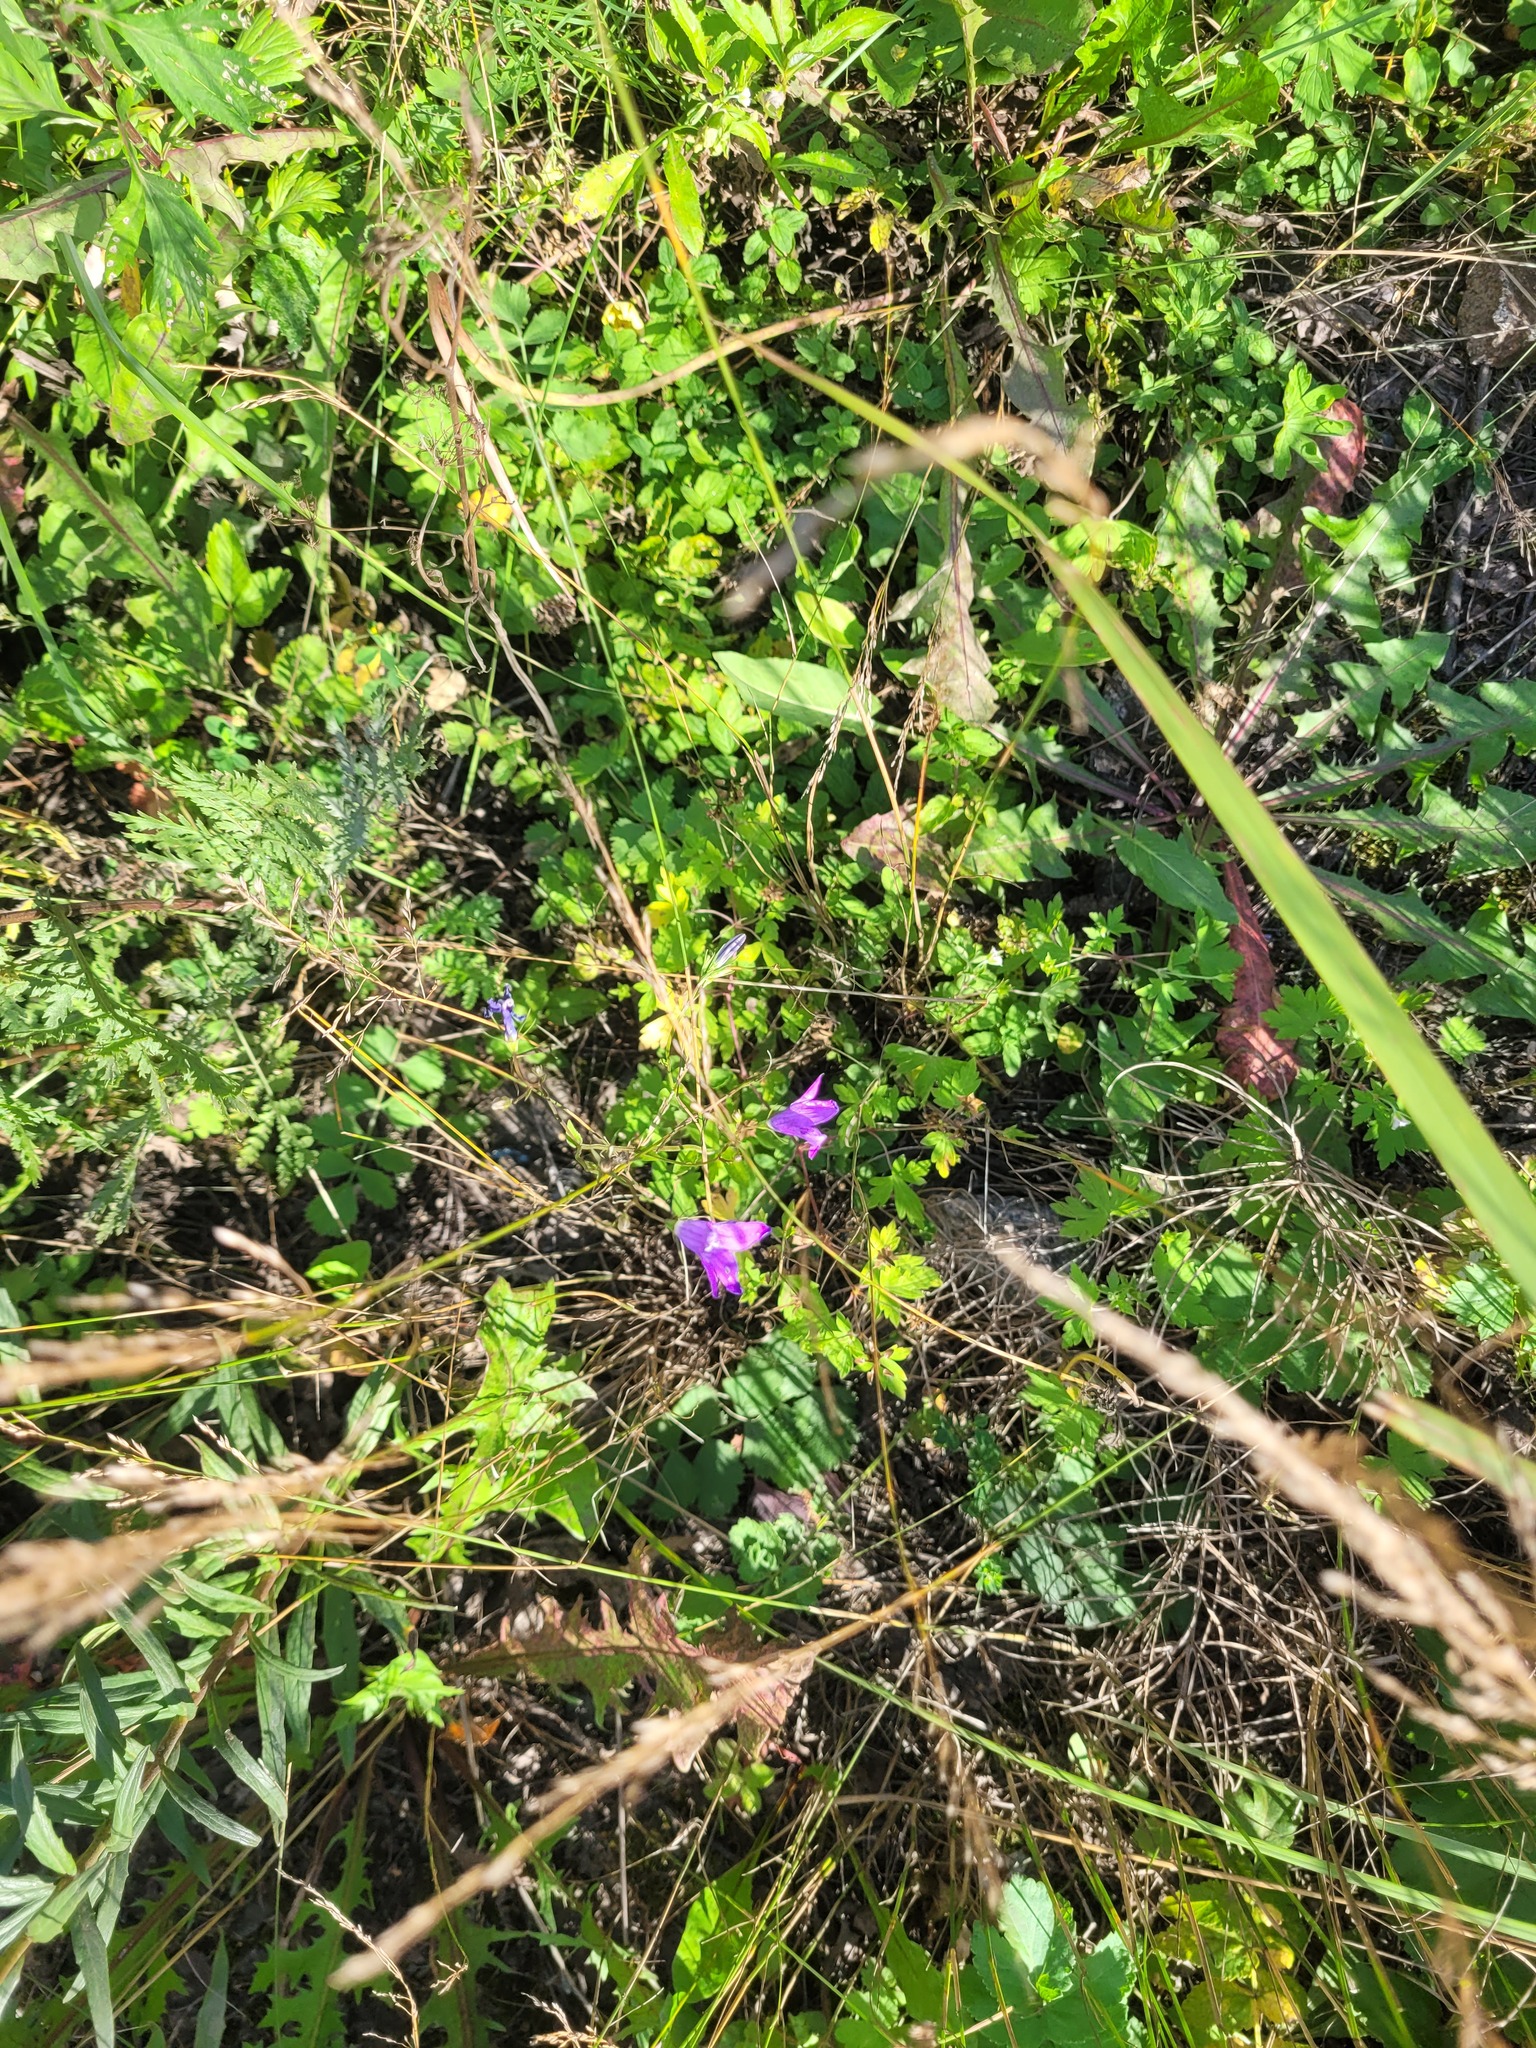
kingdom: Plantae
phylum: Tracheophyta
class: Magnoliopsida
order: Asterales
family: Campanulaceae
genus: Campanula
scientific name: Campanula patula
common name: Spreading bellflower
